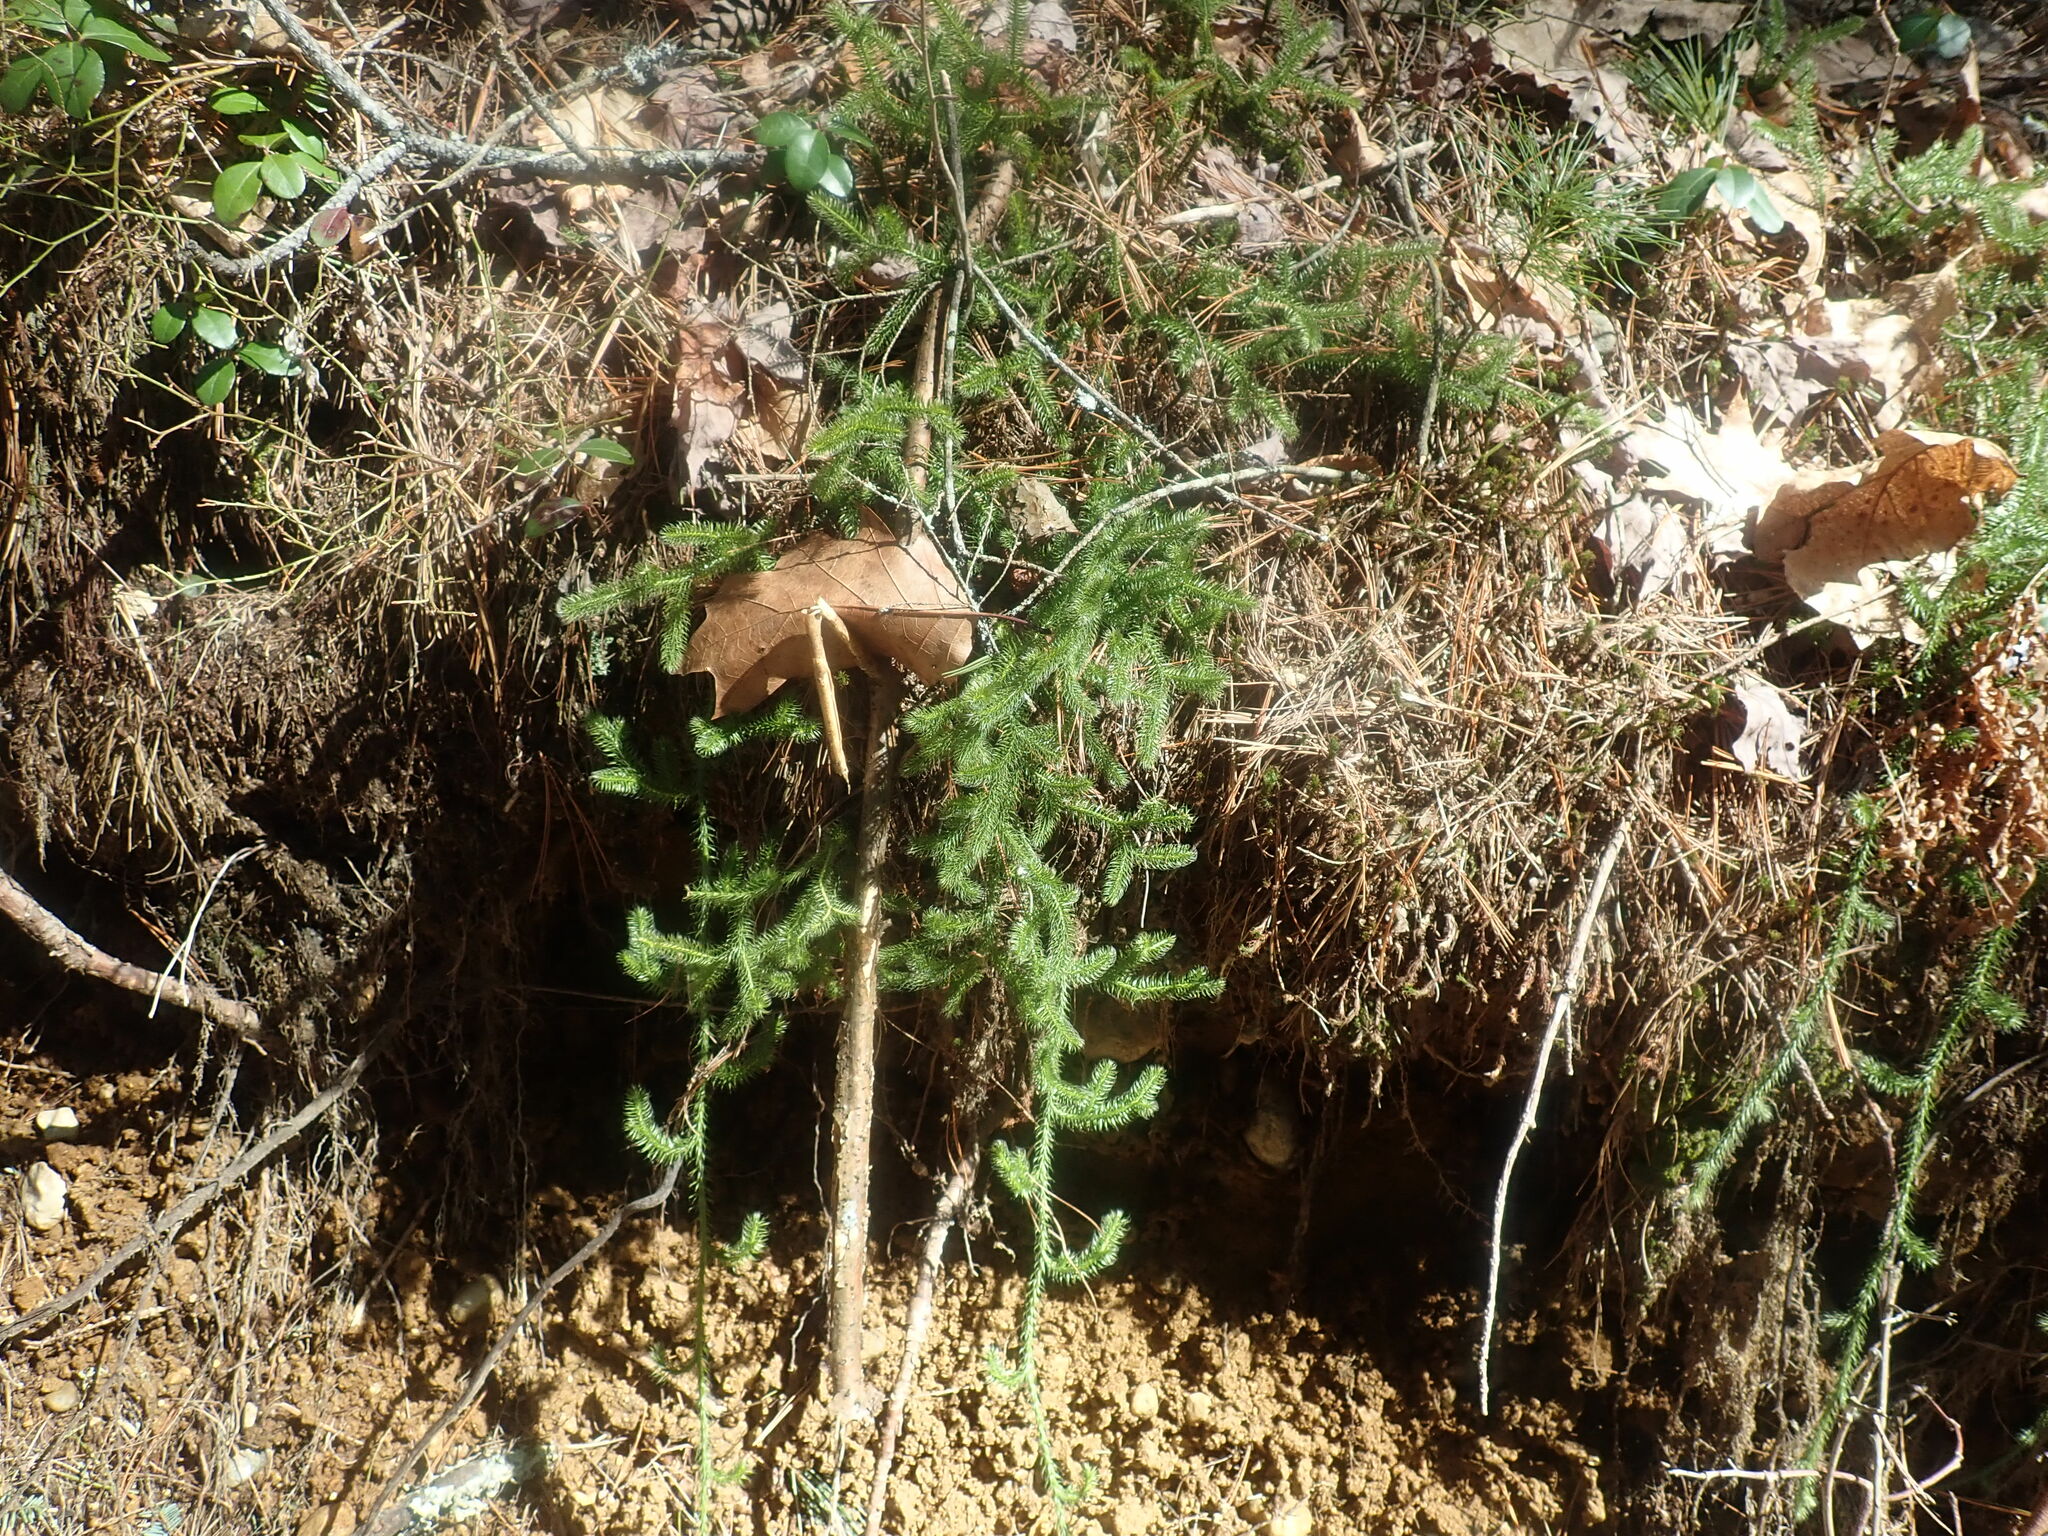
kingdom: Plantae
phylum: Tracheophyta
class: Lycopodiopsida
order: Lycopodiales
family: Lycopodiaceae
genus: Lycopodium
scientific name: Lycopodium clavatum
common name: Stag's-horn clubmoss
